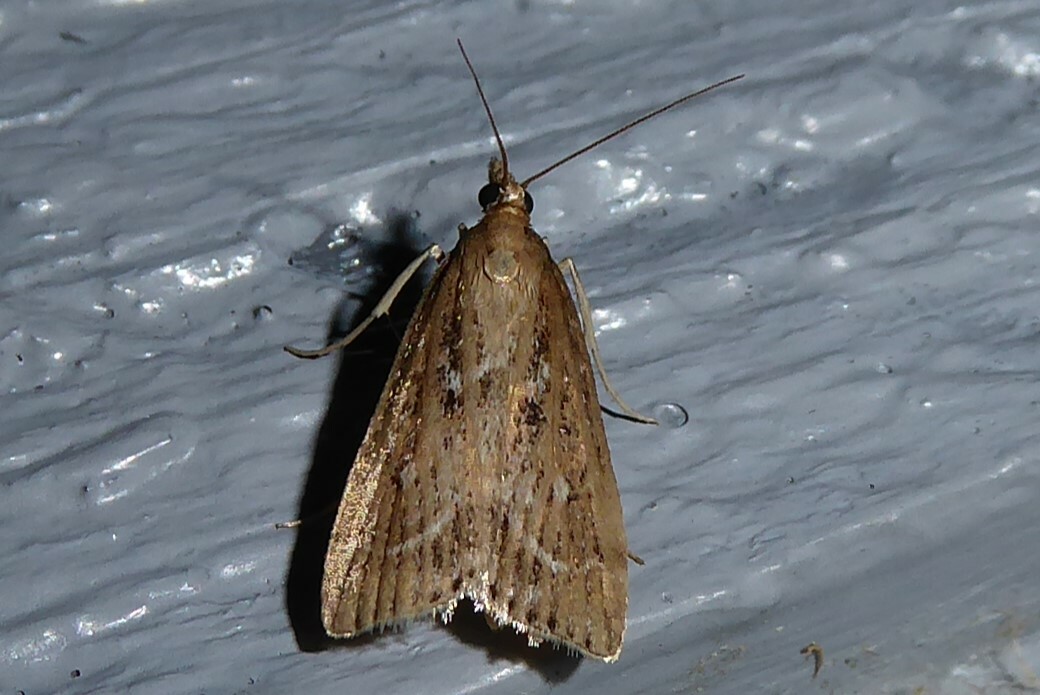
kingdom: Animalia
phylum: Arthropoda
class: Insecta
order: Lepidoptera
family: Crambidae
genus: Eudonia
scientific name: Eudonia octophora
